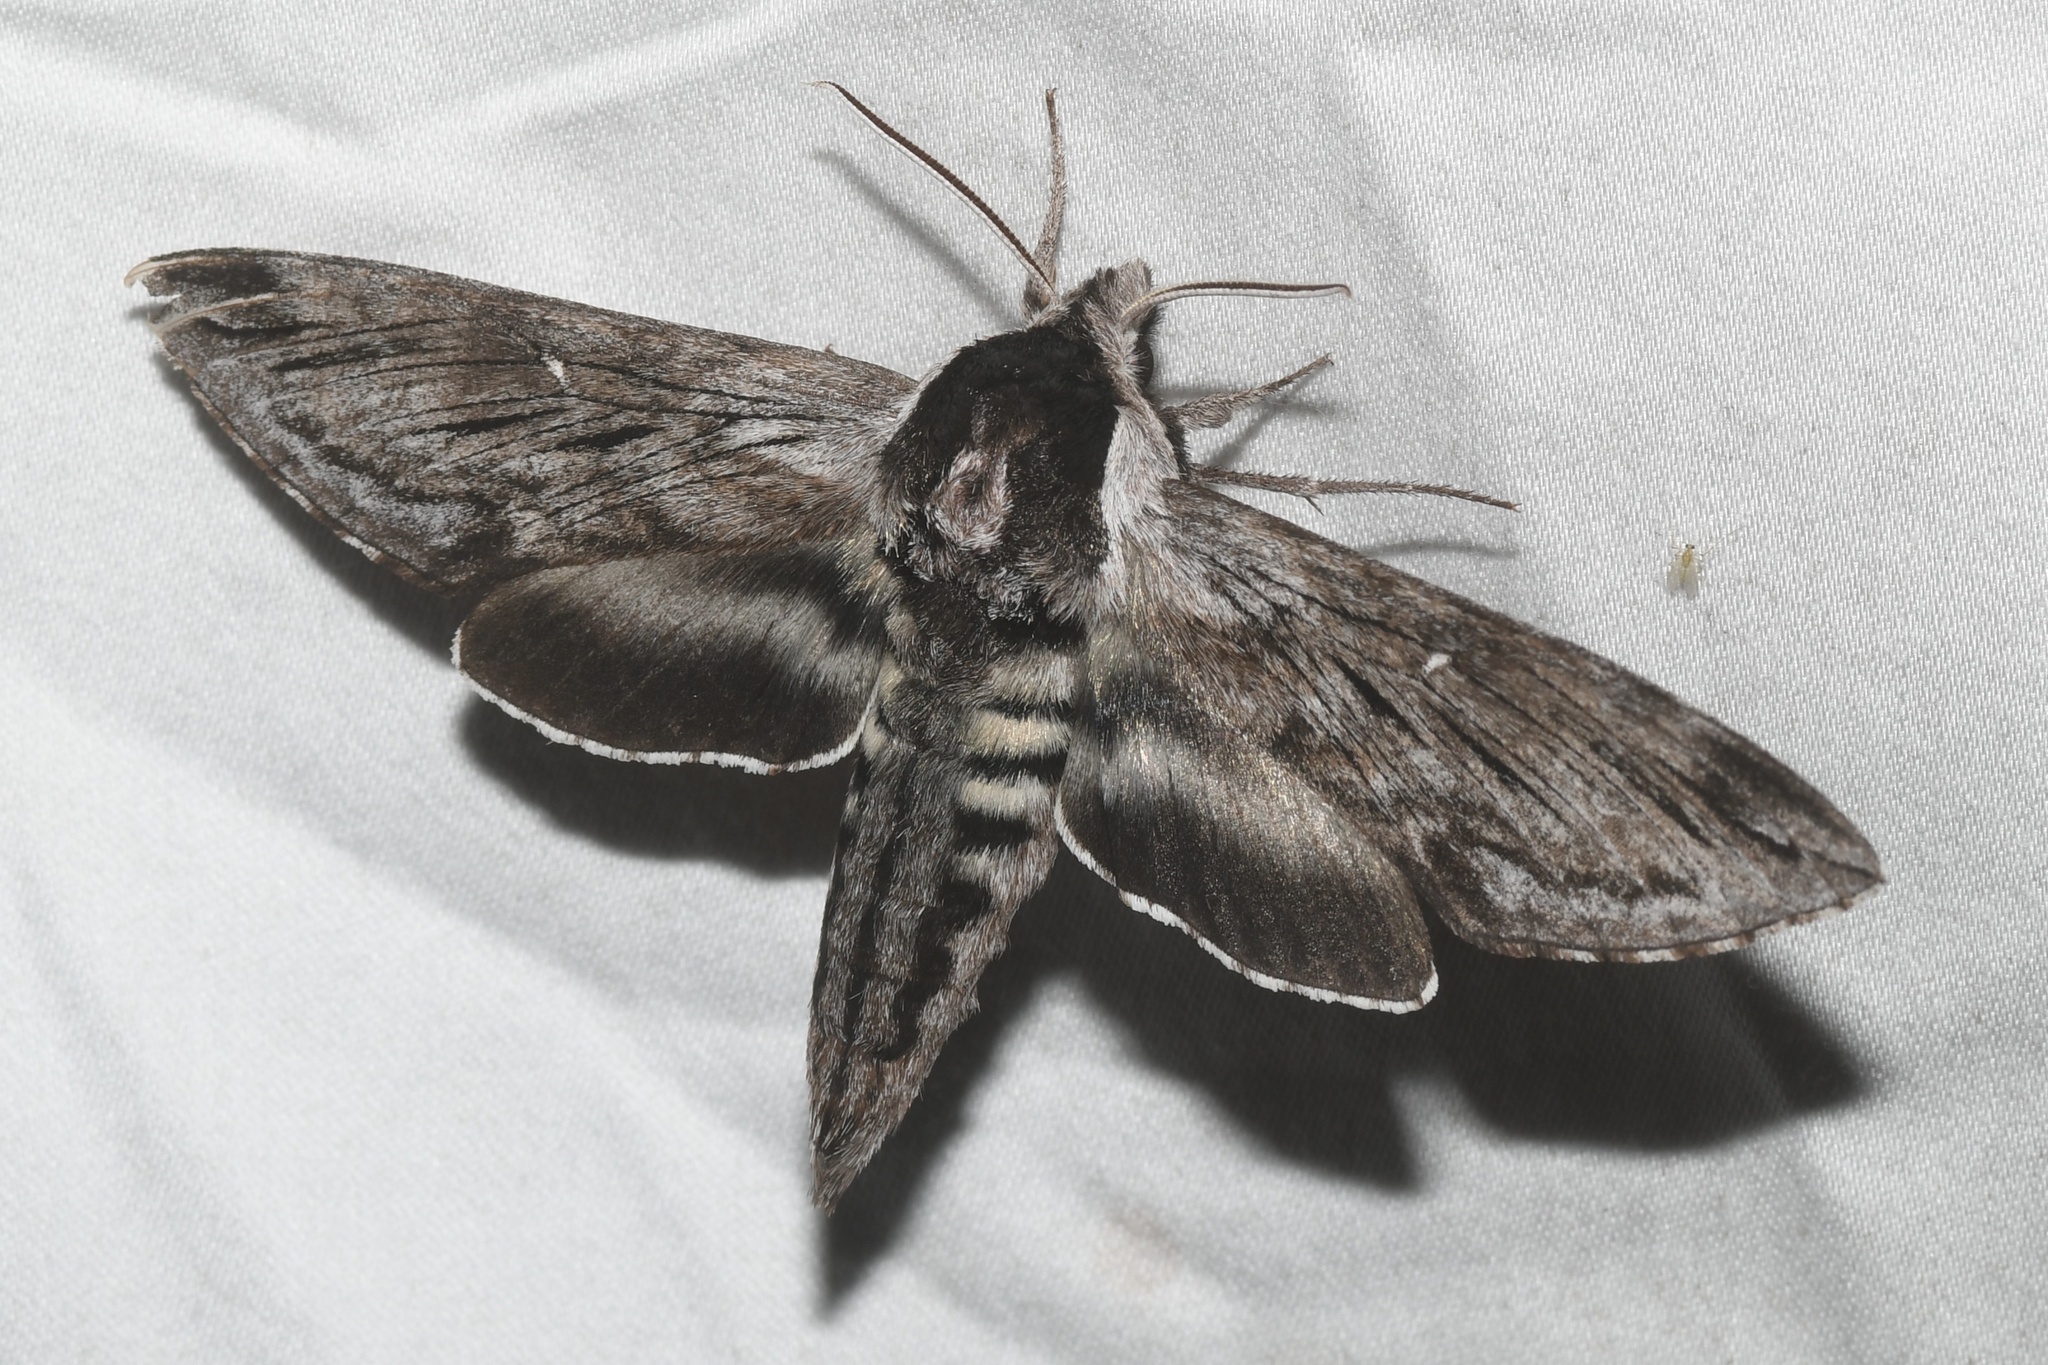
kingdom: Animalia
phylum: Arthropoda
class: Insecta
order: Lepidoptera
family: Sphingidae
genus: Sphinx
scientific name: Sphinx poecila
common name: Northern apple sphinx
